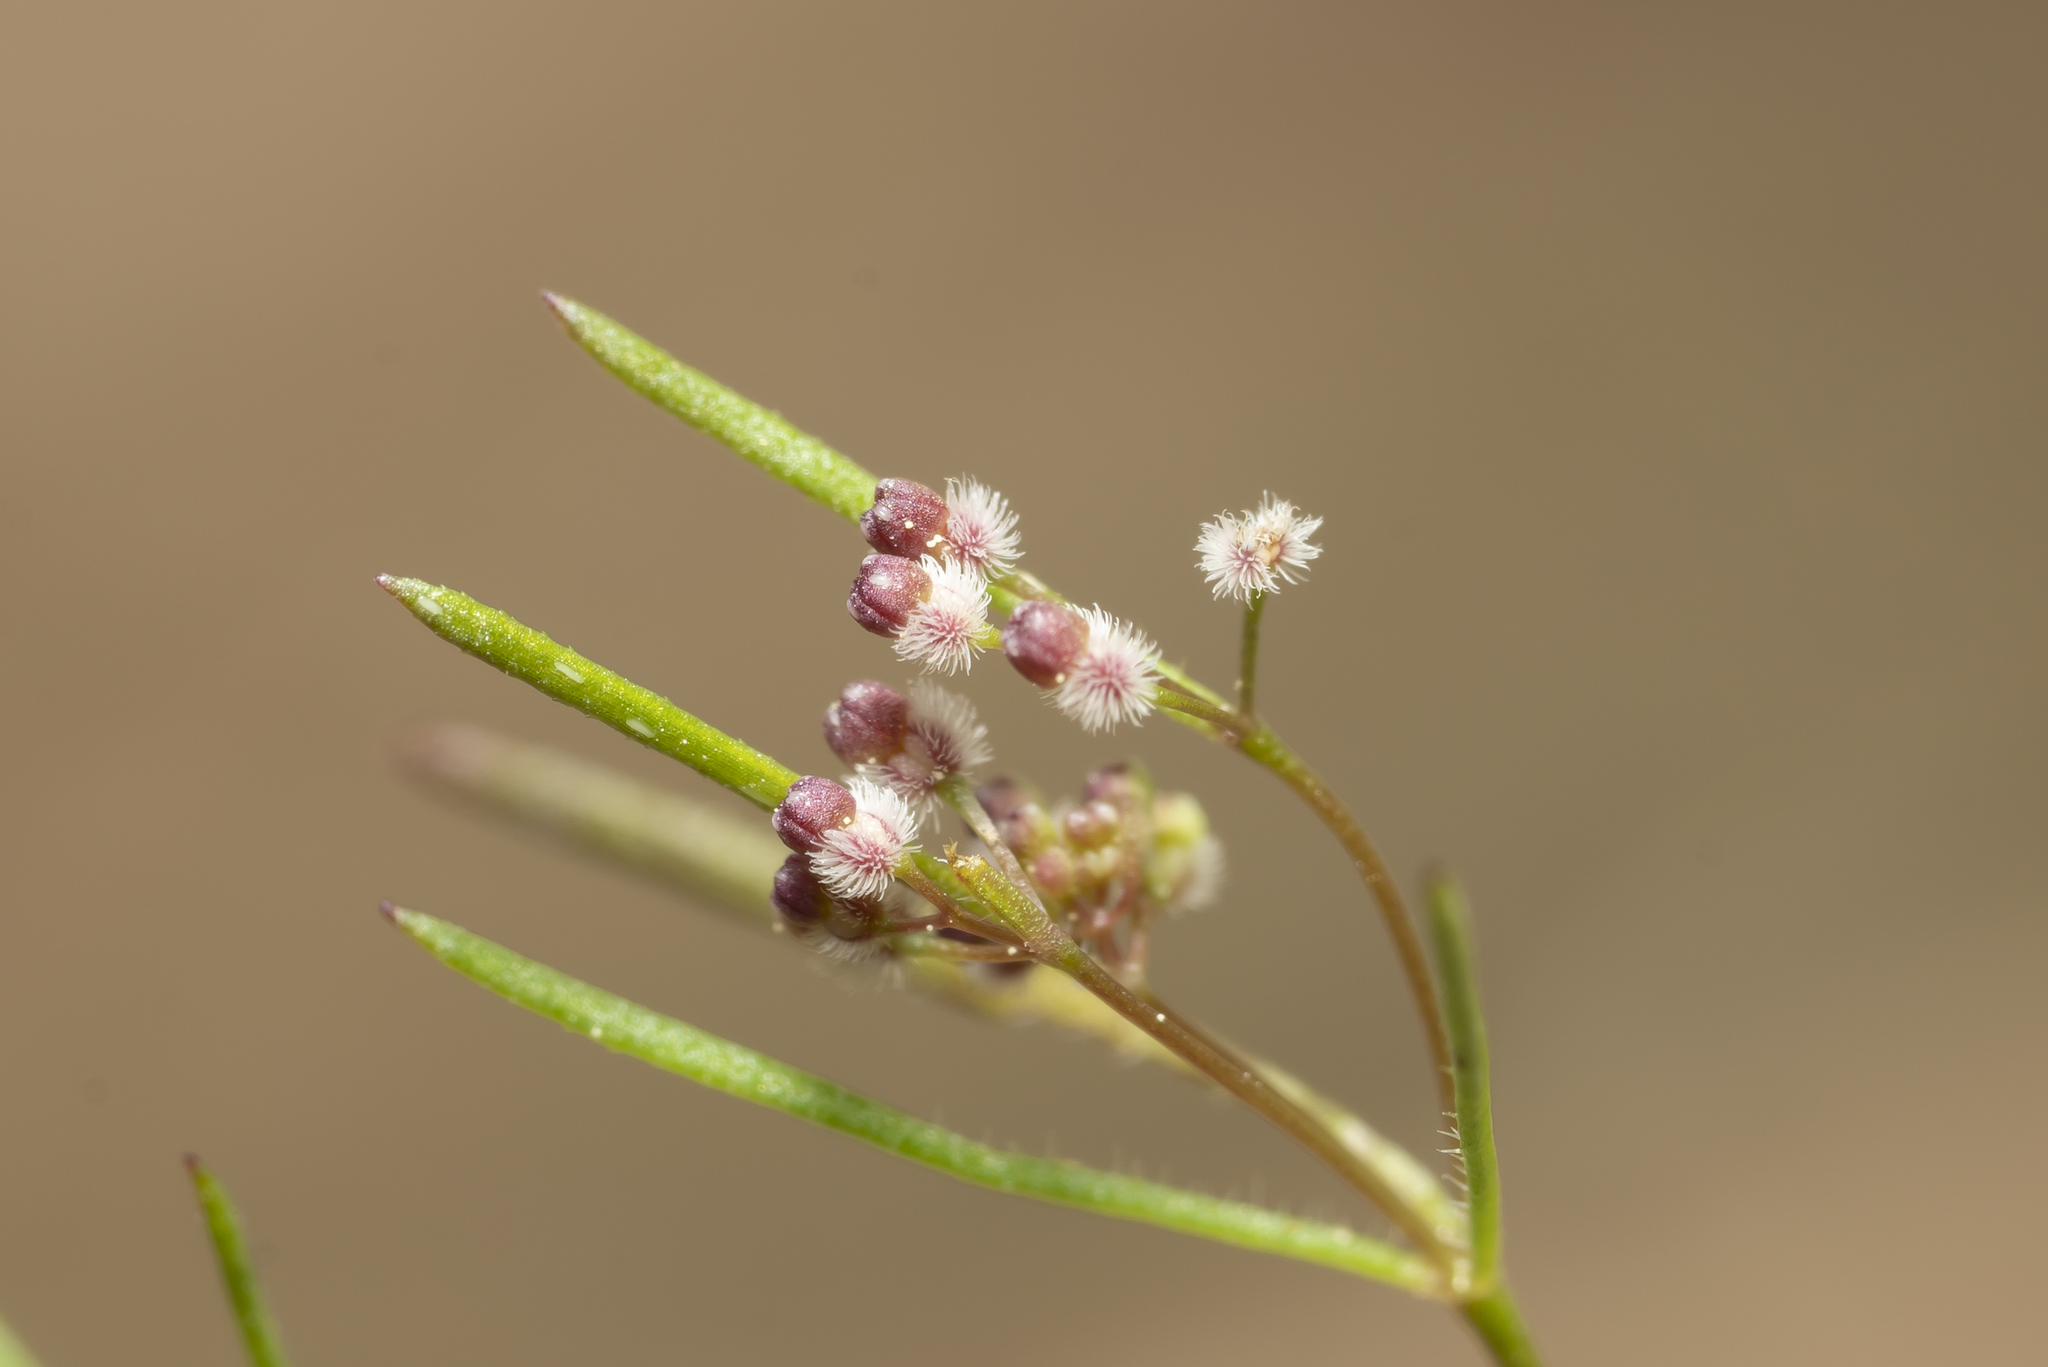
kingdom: Plantae
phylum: Tracheophyta
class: Magnoliopsida
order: Gentianales
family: Rubiaceae
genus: Galium
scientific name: Galium setaceum
